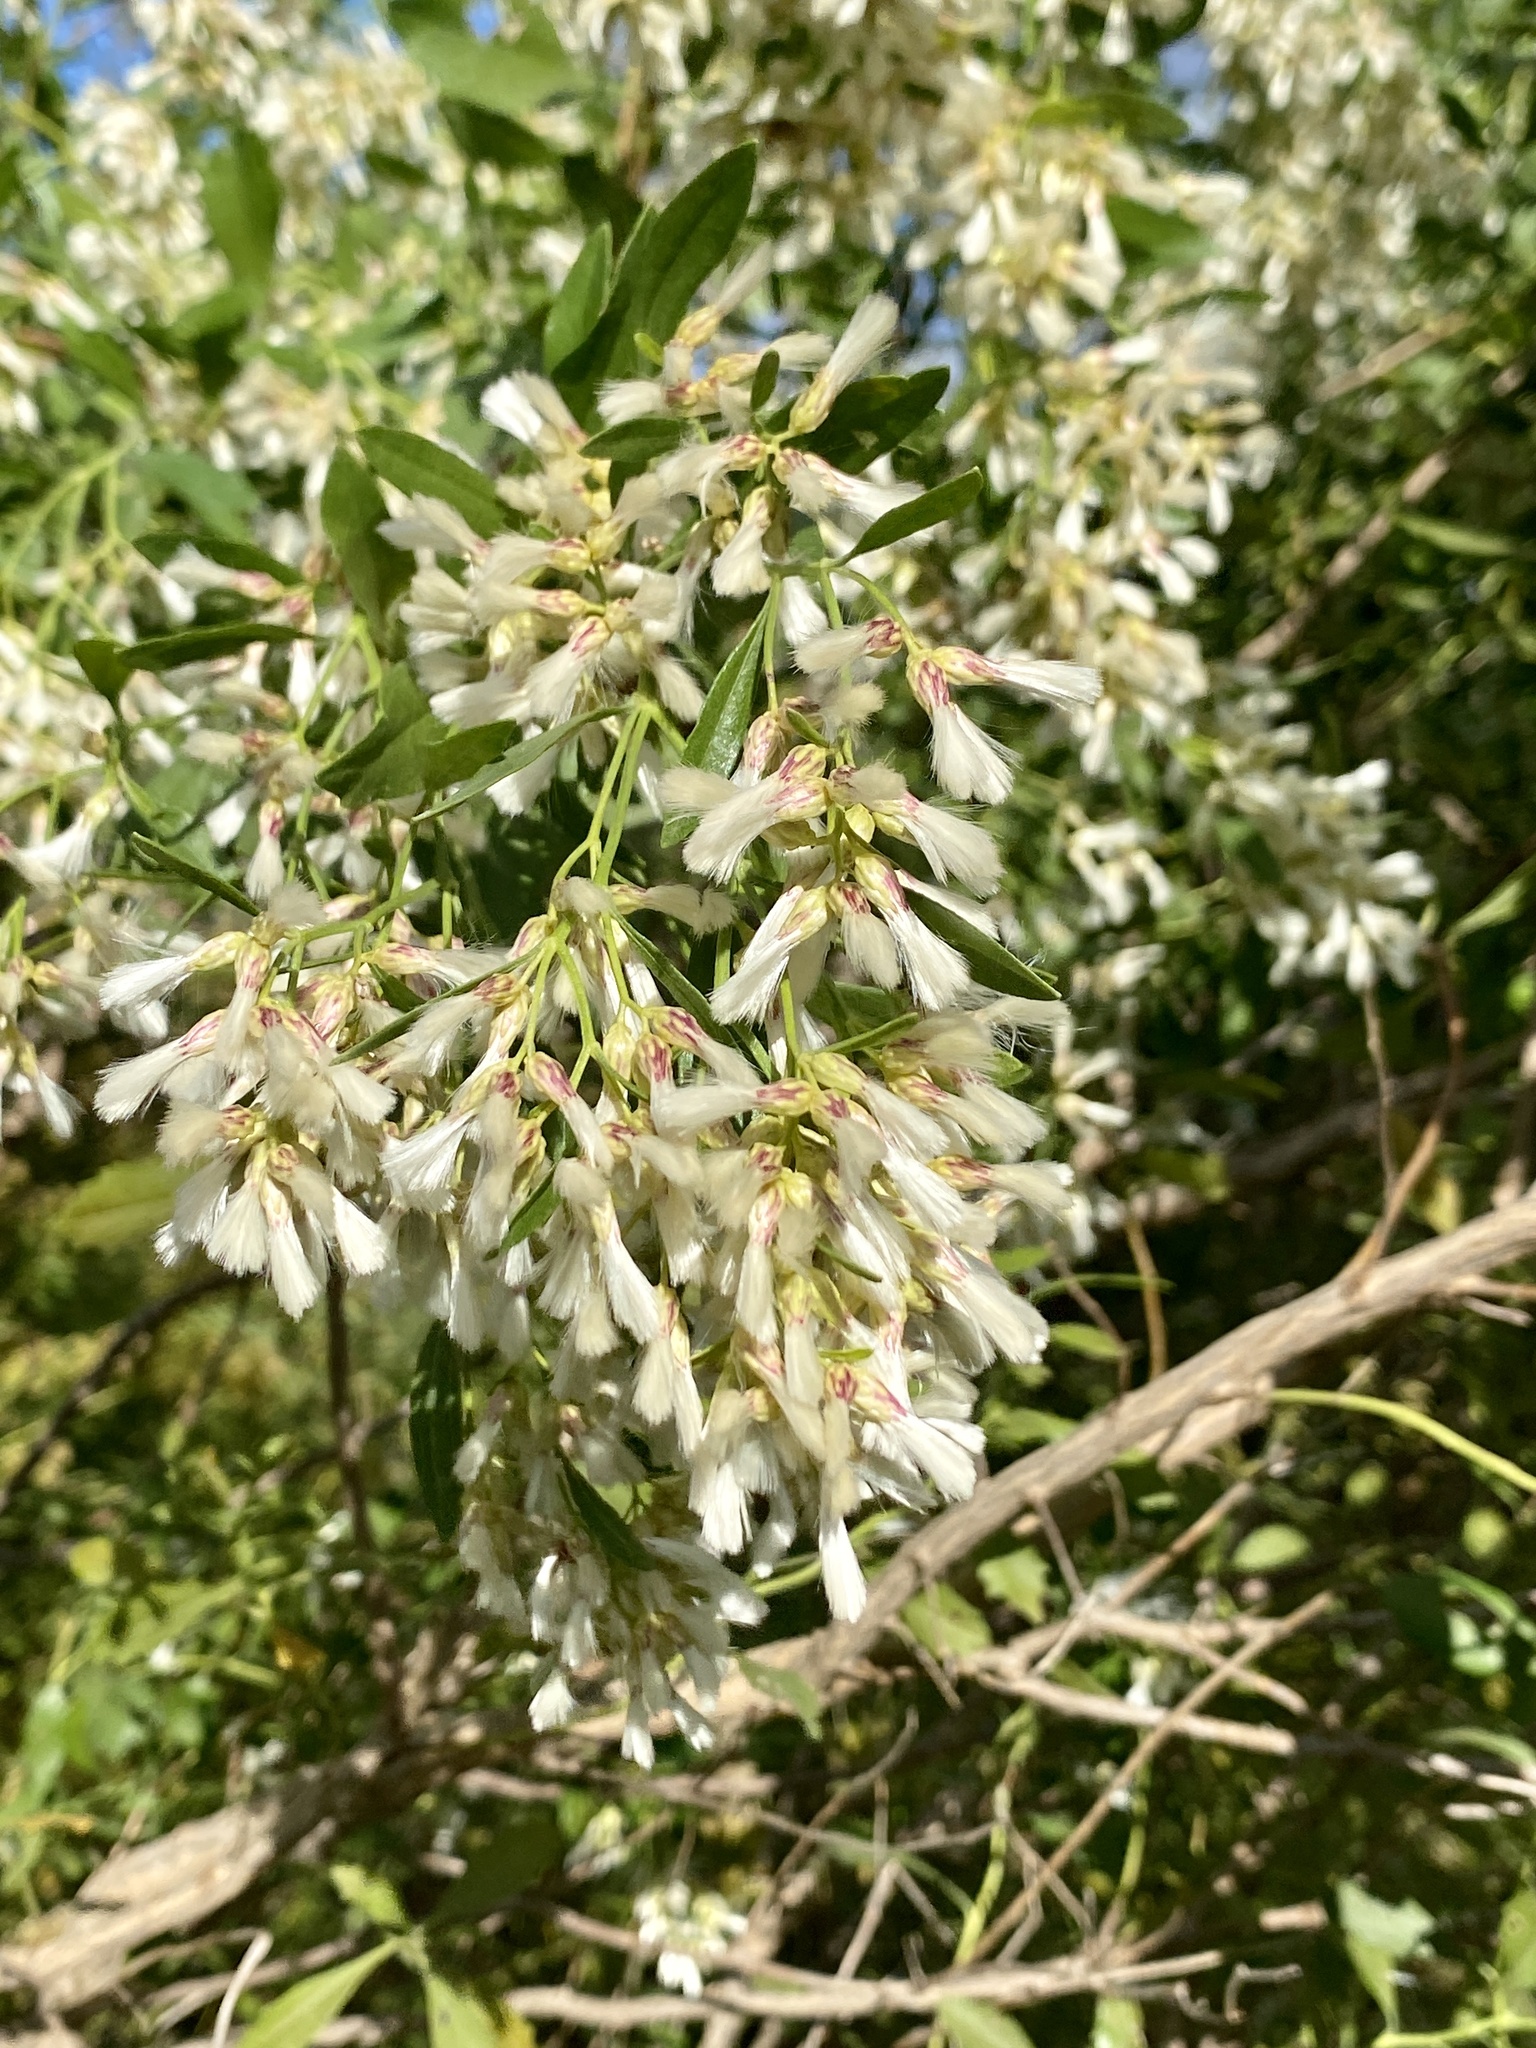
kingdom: Plantae
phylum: Tracheophyta
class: Magnoliopsida
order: Asterales
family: Asteraceae
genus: Baccharis
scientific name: Baccharis halimifolia
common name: Eastern baccharis
